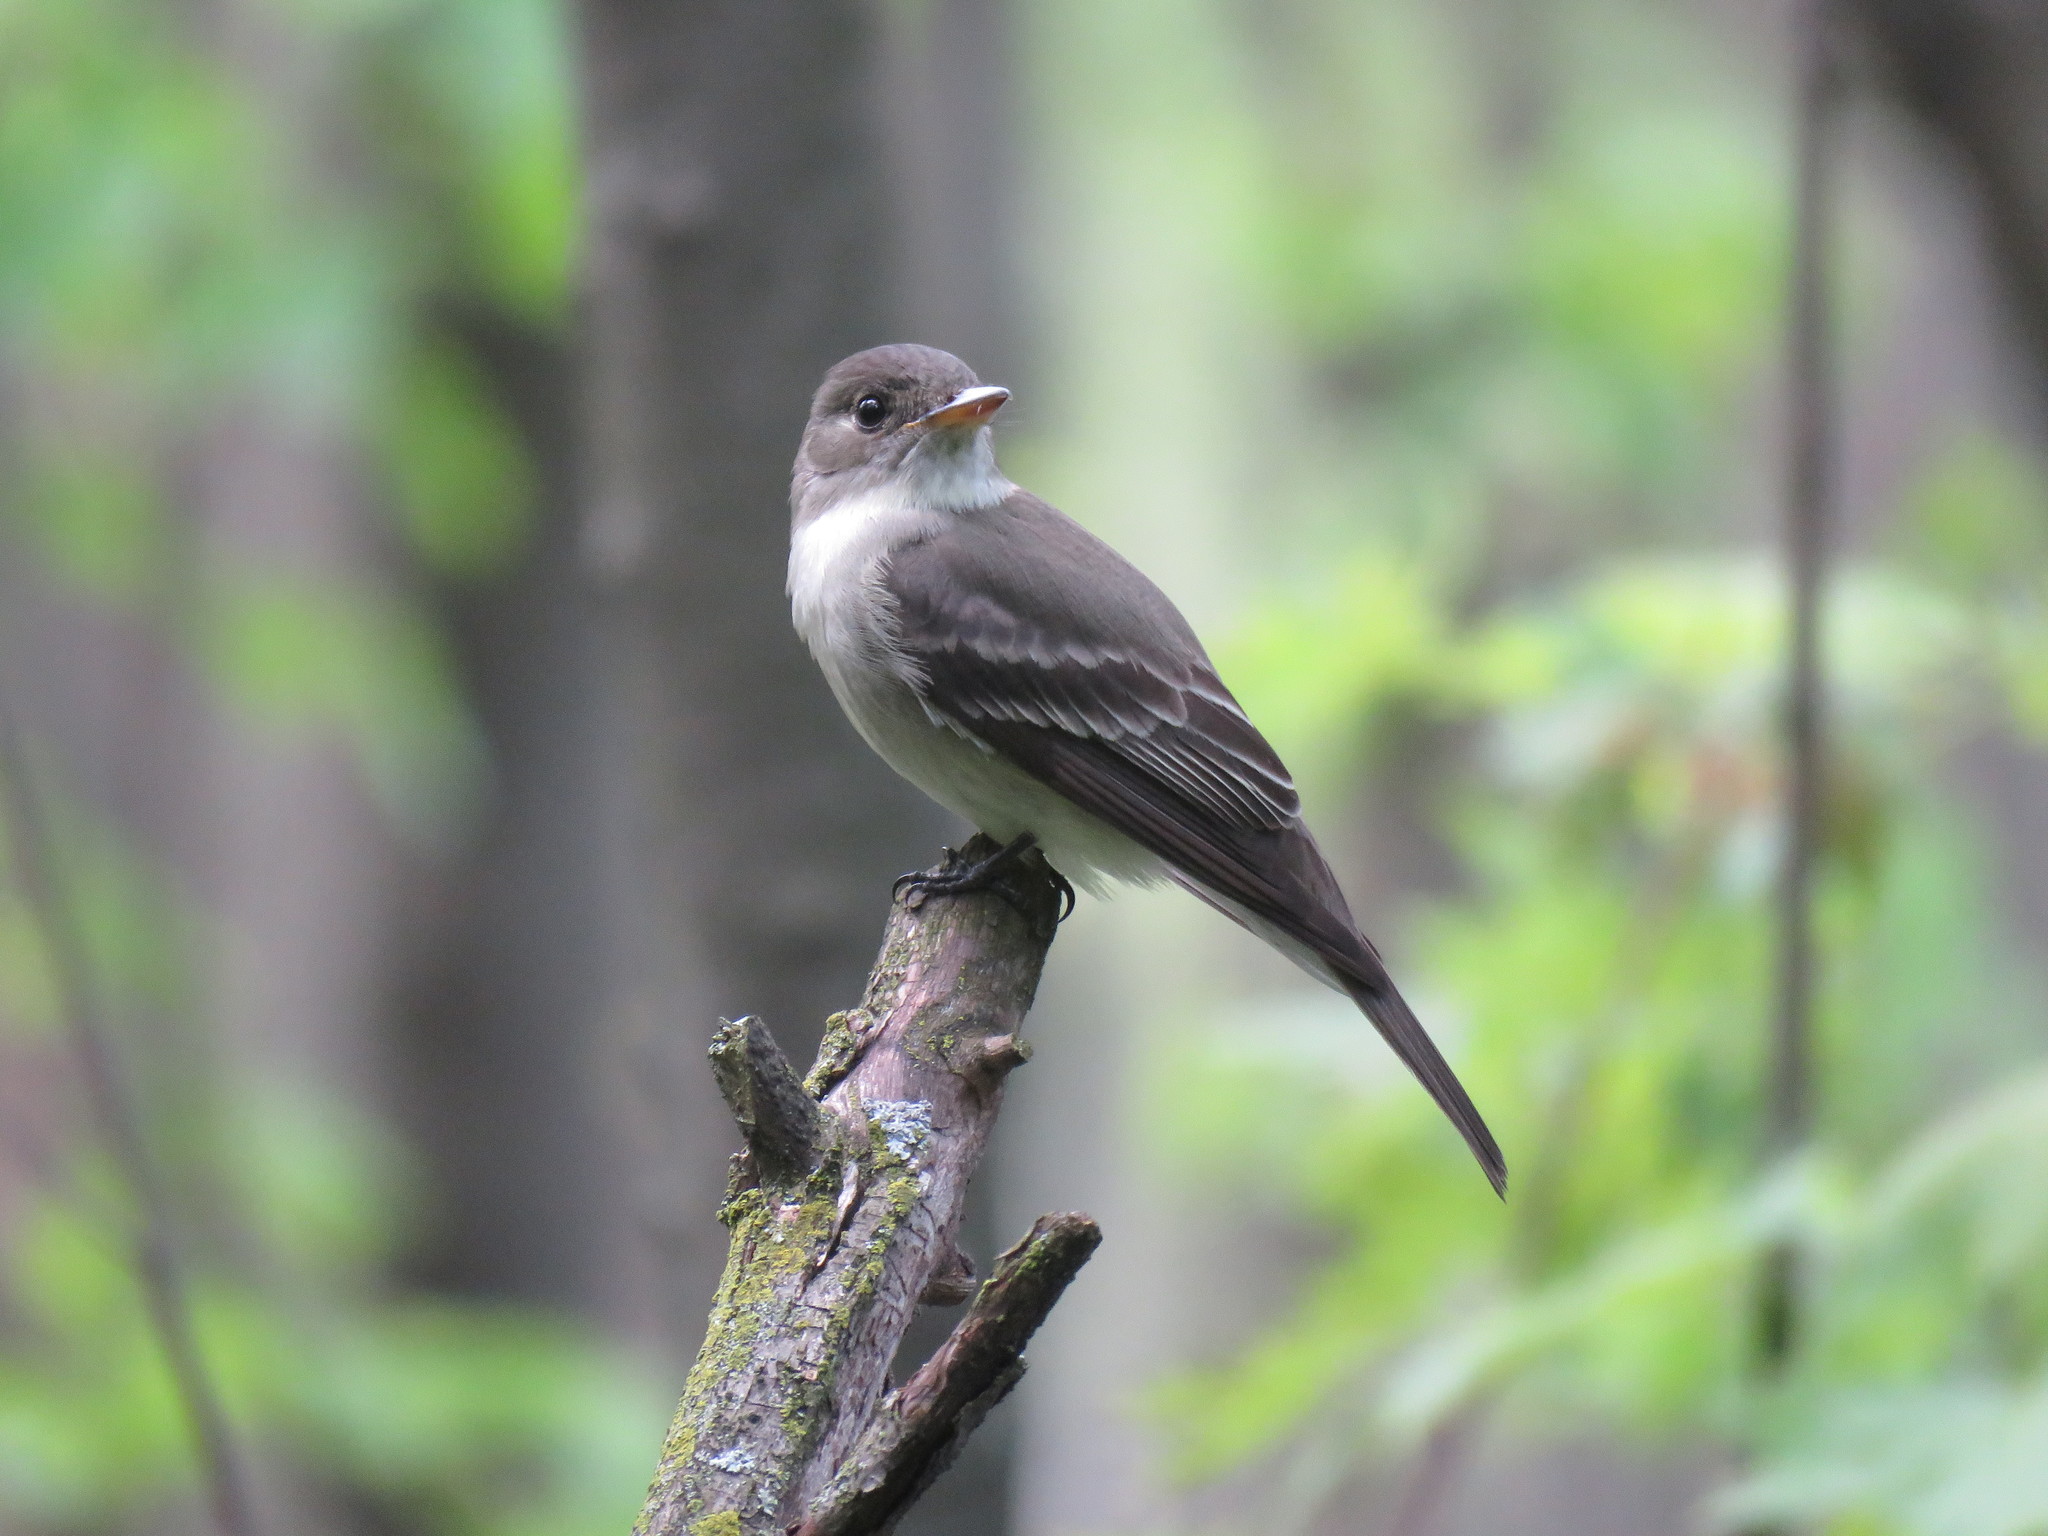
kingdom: Animalia
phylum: Chordata
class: Aves
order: Passeriformes
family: Tyrannidae
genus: Contopus
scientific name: Contopus virens
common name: Eastern wood-pewee
